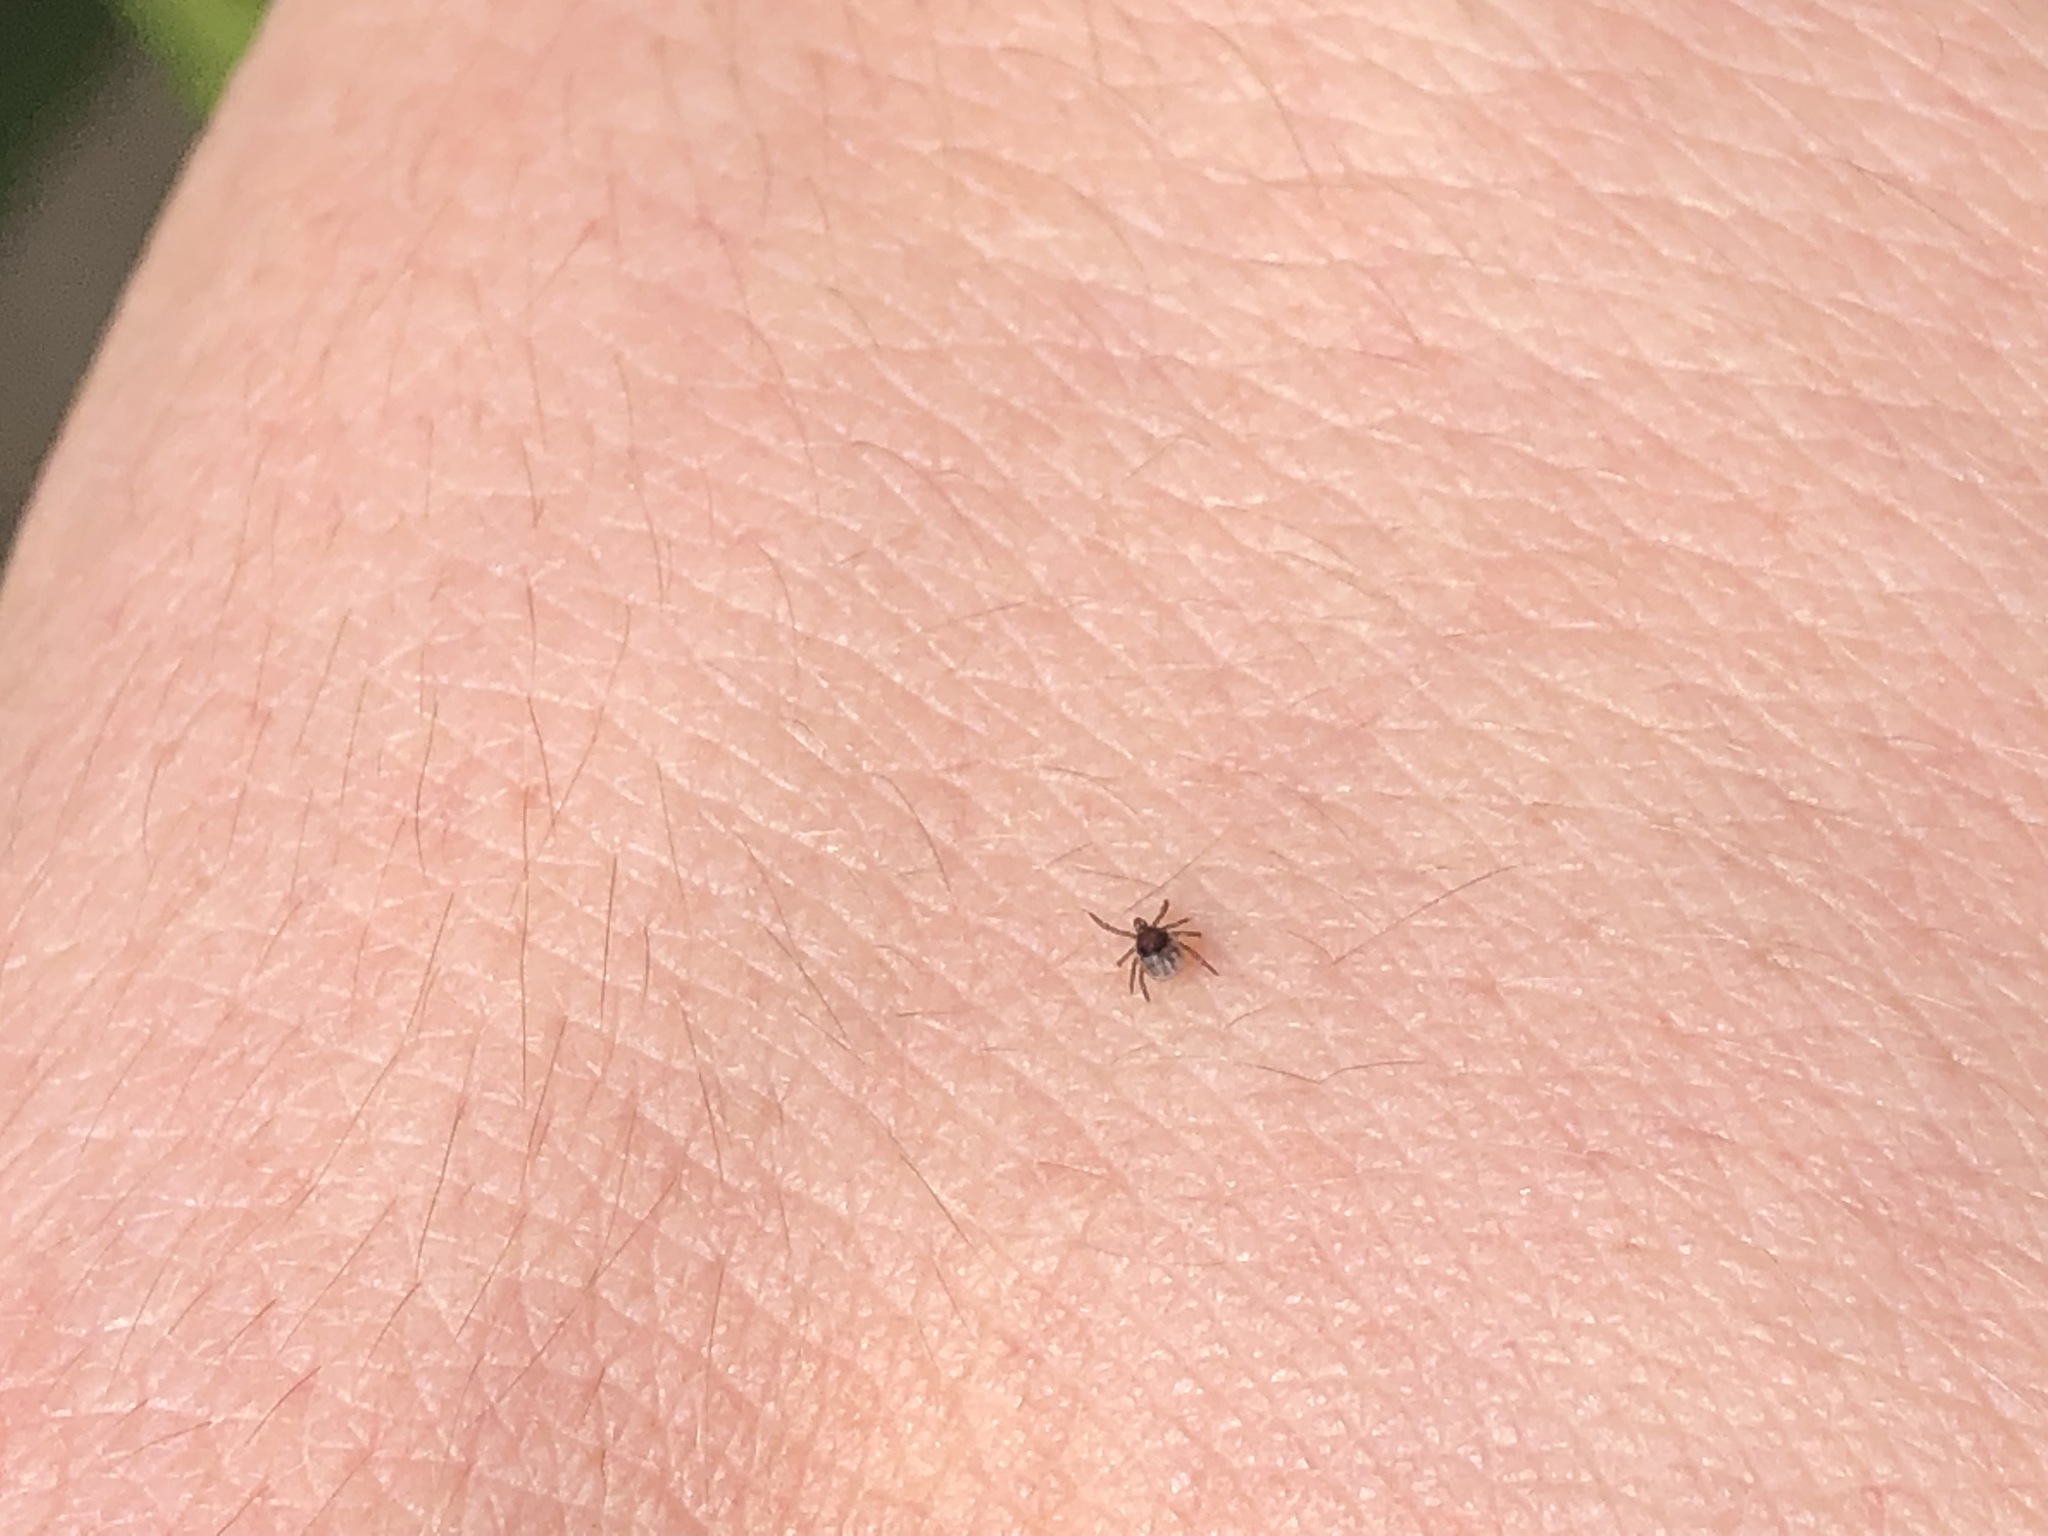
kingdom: Animalia
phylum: Arthropoda
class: Arachnida
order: Ixodida
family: Ixodidae
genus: Ixodes
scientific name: Ixodes ricinus
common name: Castor bean tick
